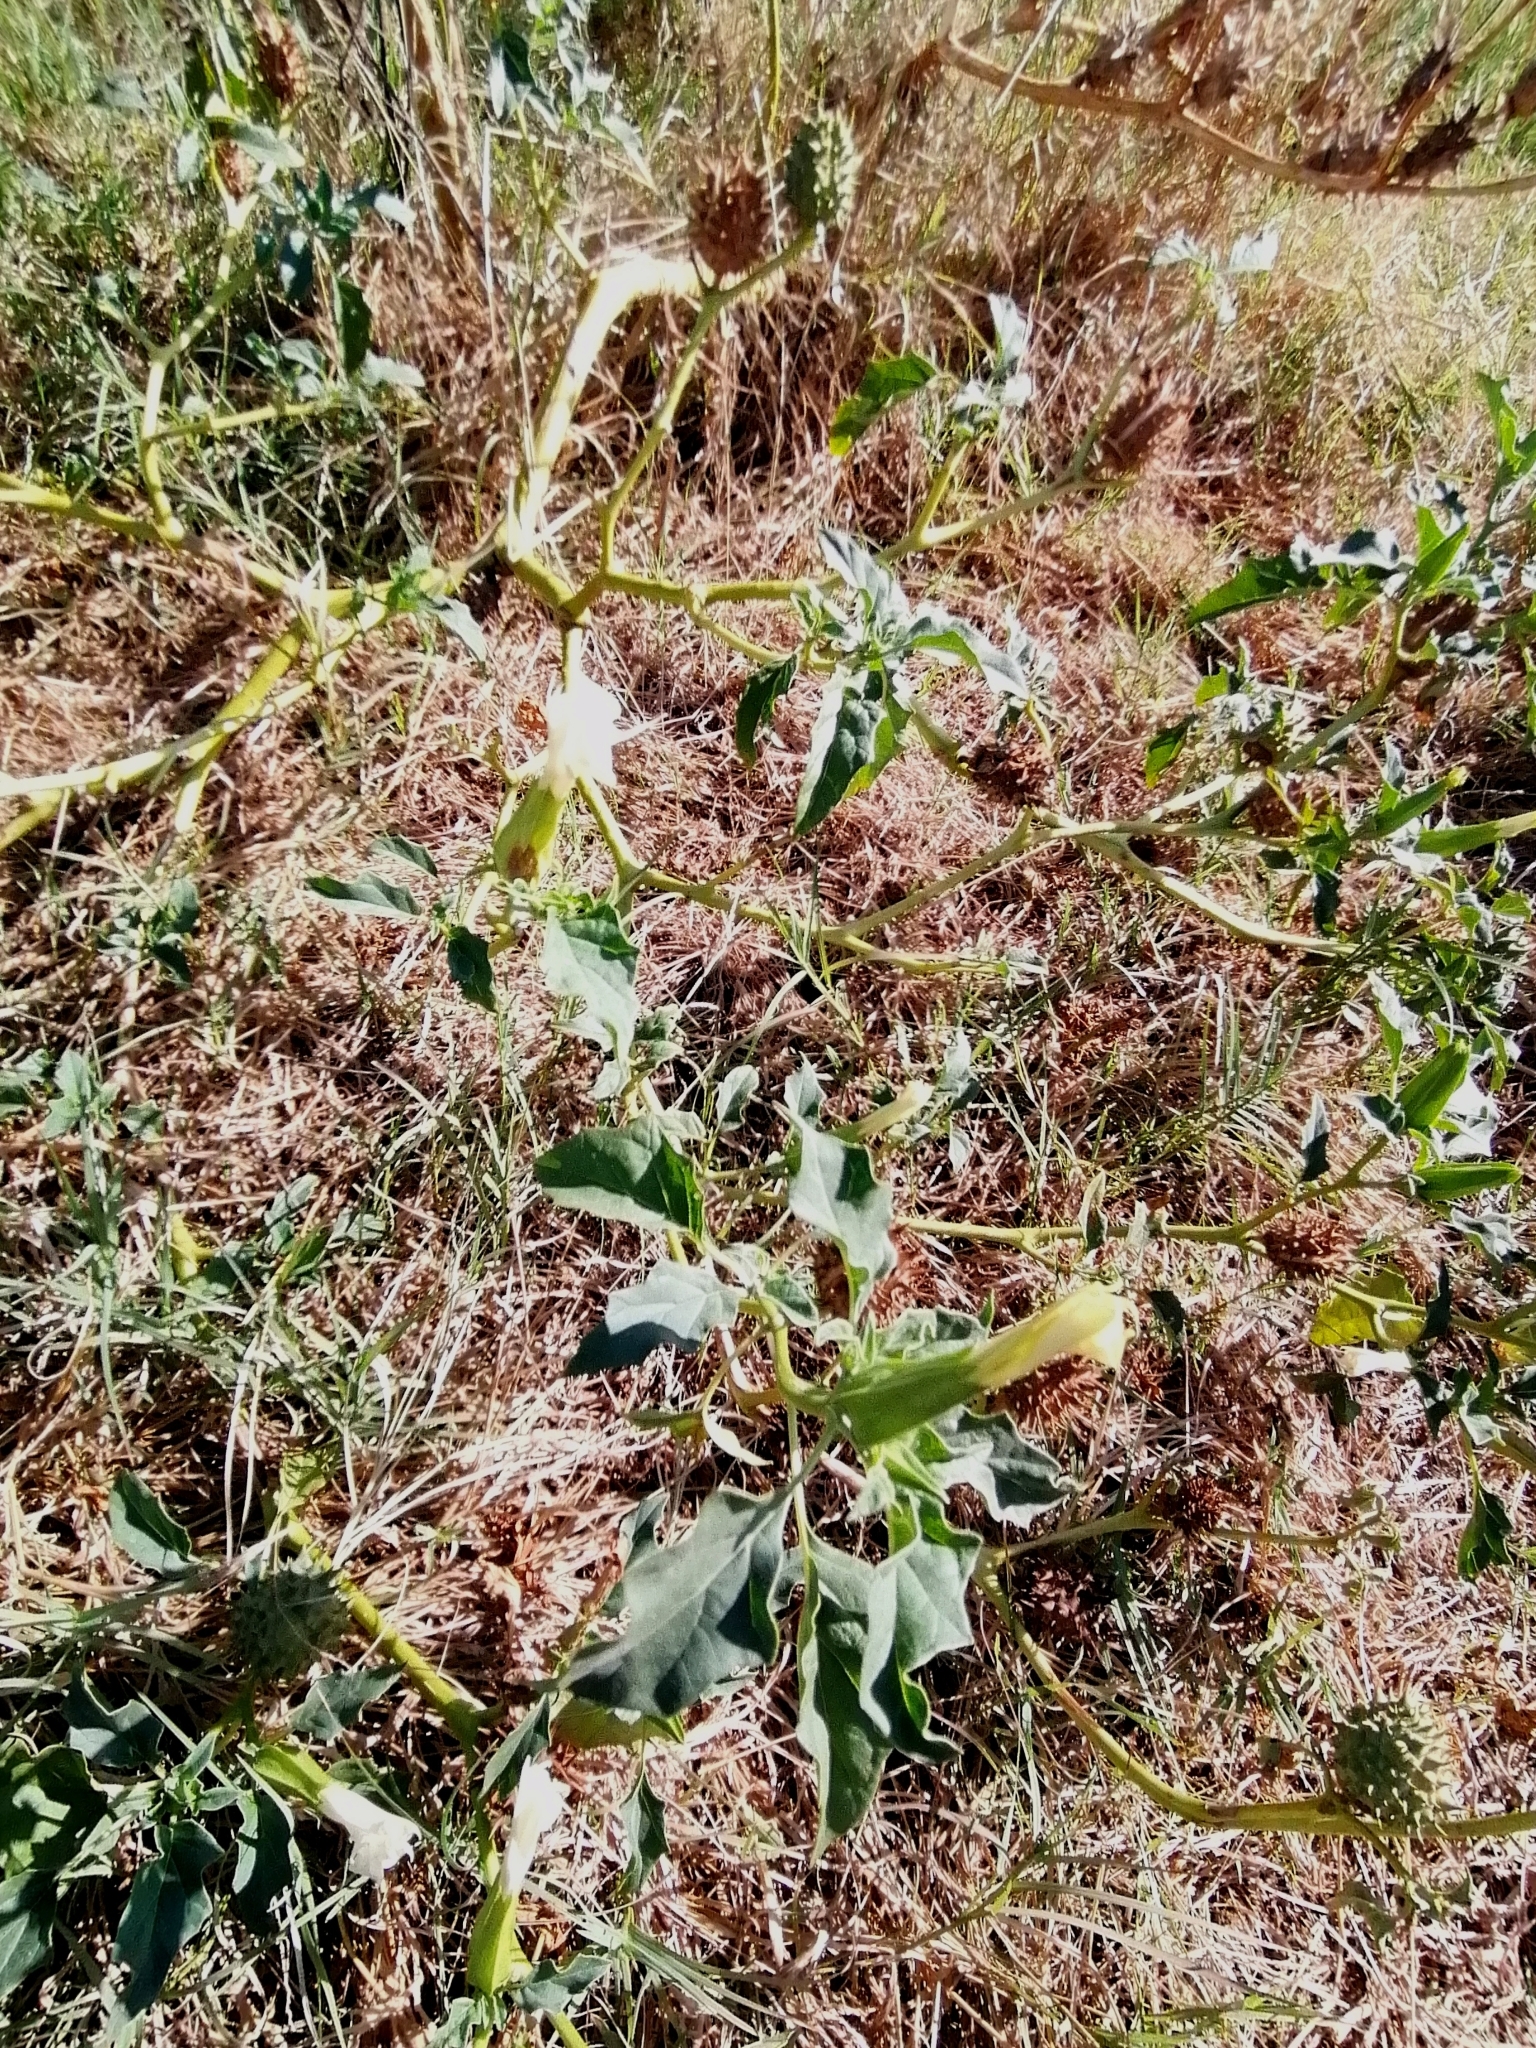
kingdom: Plantae
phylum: Tracheophyta
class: Magnoliopsida
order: Solanales
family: Solanaceae
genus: Datura
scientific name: Datura stramonium
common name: Thorn-apple
